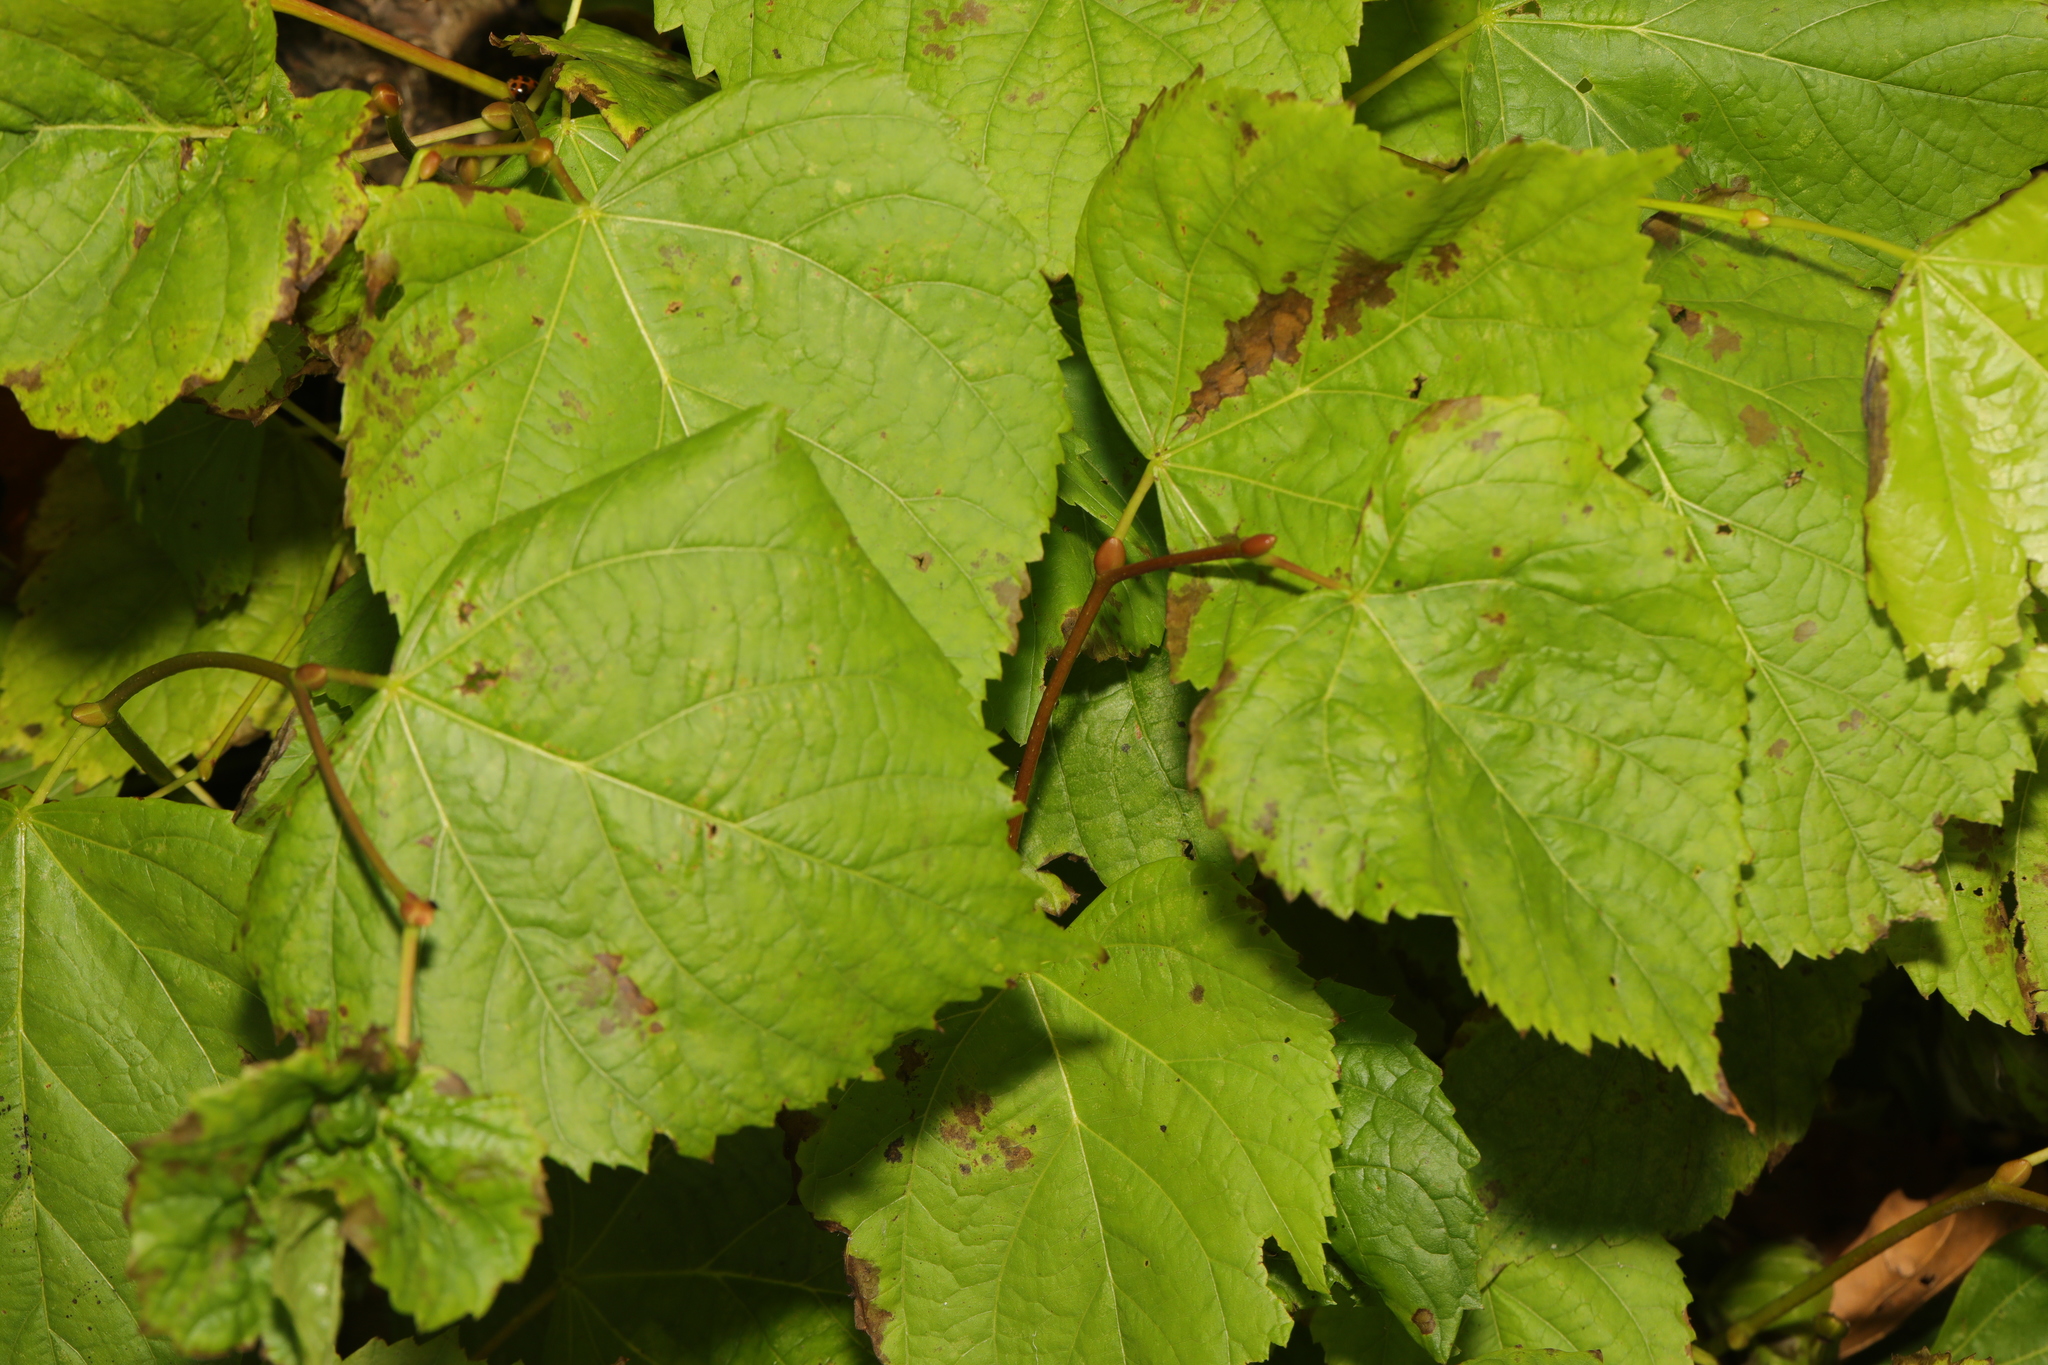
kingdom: Plantae
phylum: Tracheophyta
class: Magnoliopsida
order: Malvales
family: Malvaceae
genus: Tilia
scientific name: Tilia europaea
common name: European linden
